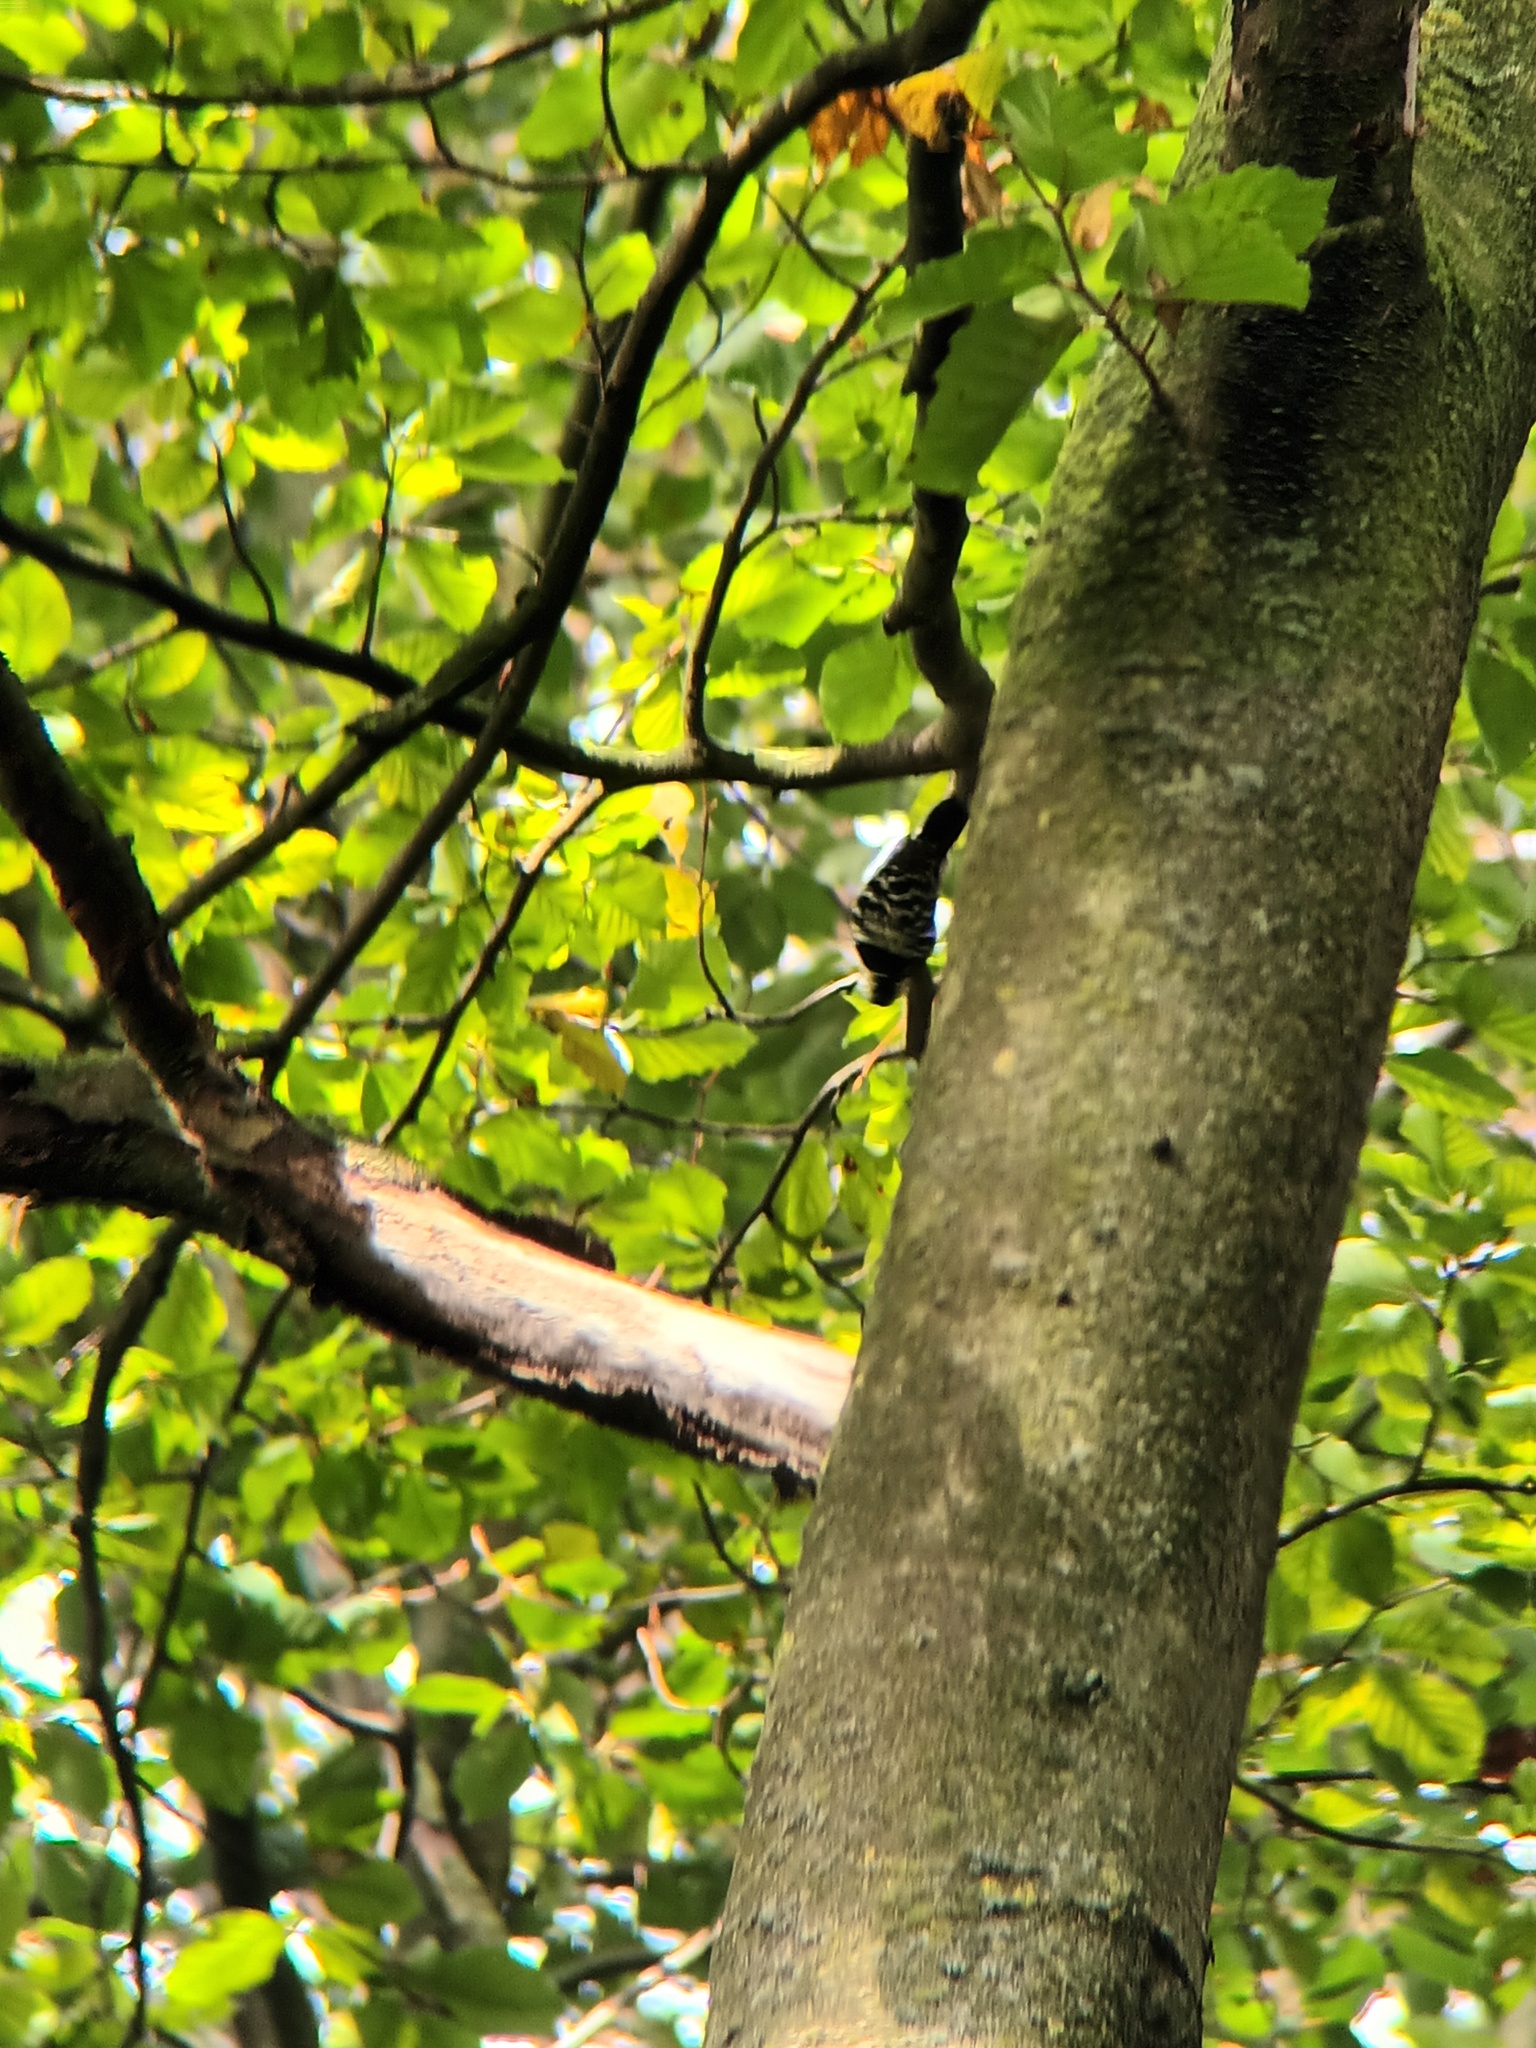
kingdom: Animalia
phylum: Chordata
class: Aves
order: Piciformes
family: Picidae
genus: Dryobates
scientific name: Dryobates minor
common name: Lesser spotted woodpecker
